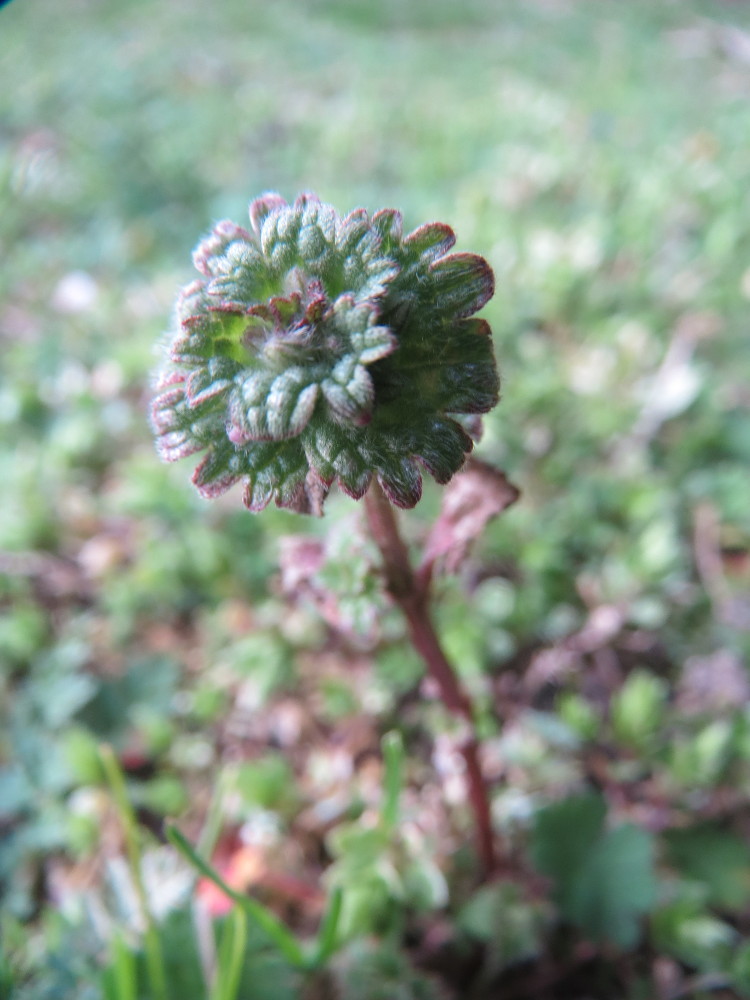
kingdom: Plantae
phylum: Tracheophyta
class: Magnoliopsida
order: Lamiales
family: Lamiaceae
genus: Lamium
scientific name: Lamium amplexicaule
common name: Henbit dead-nettle
